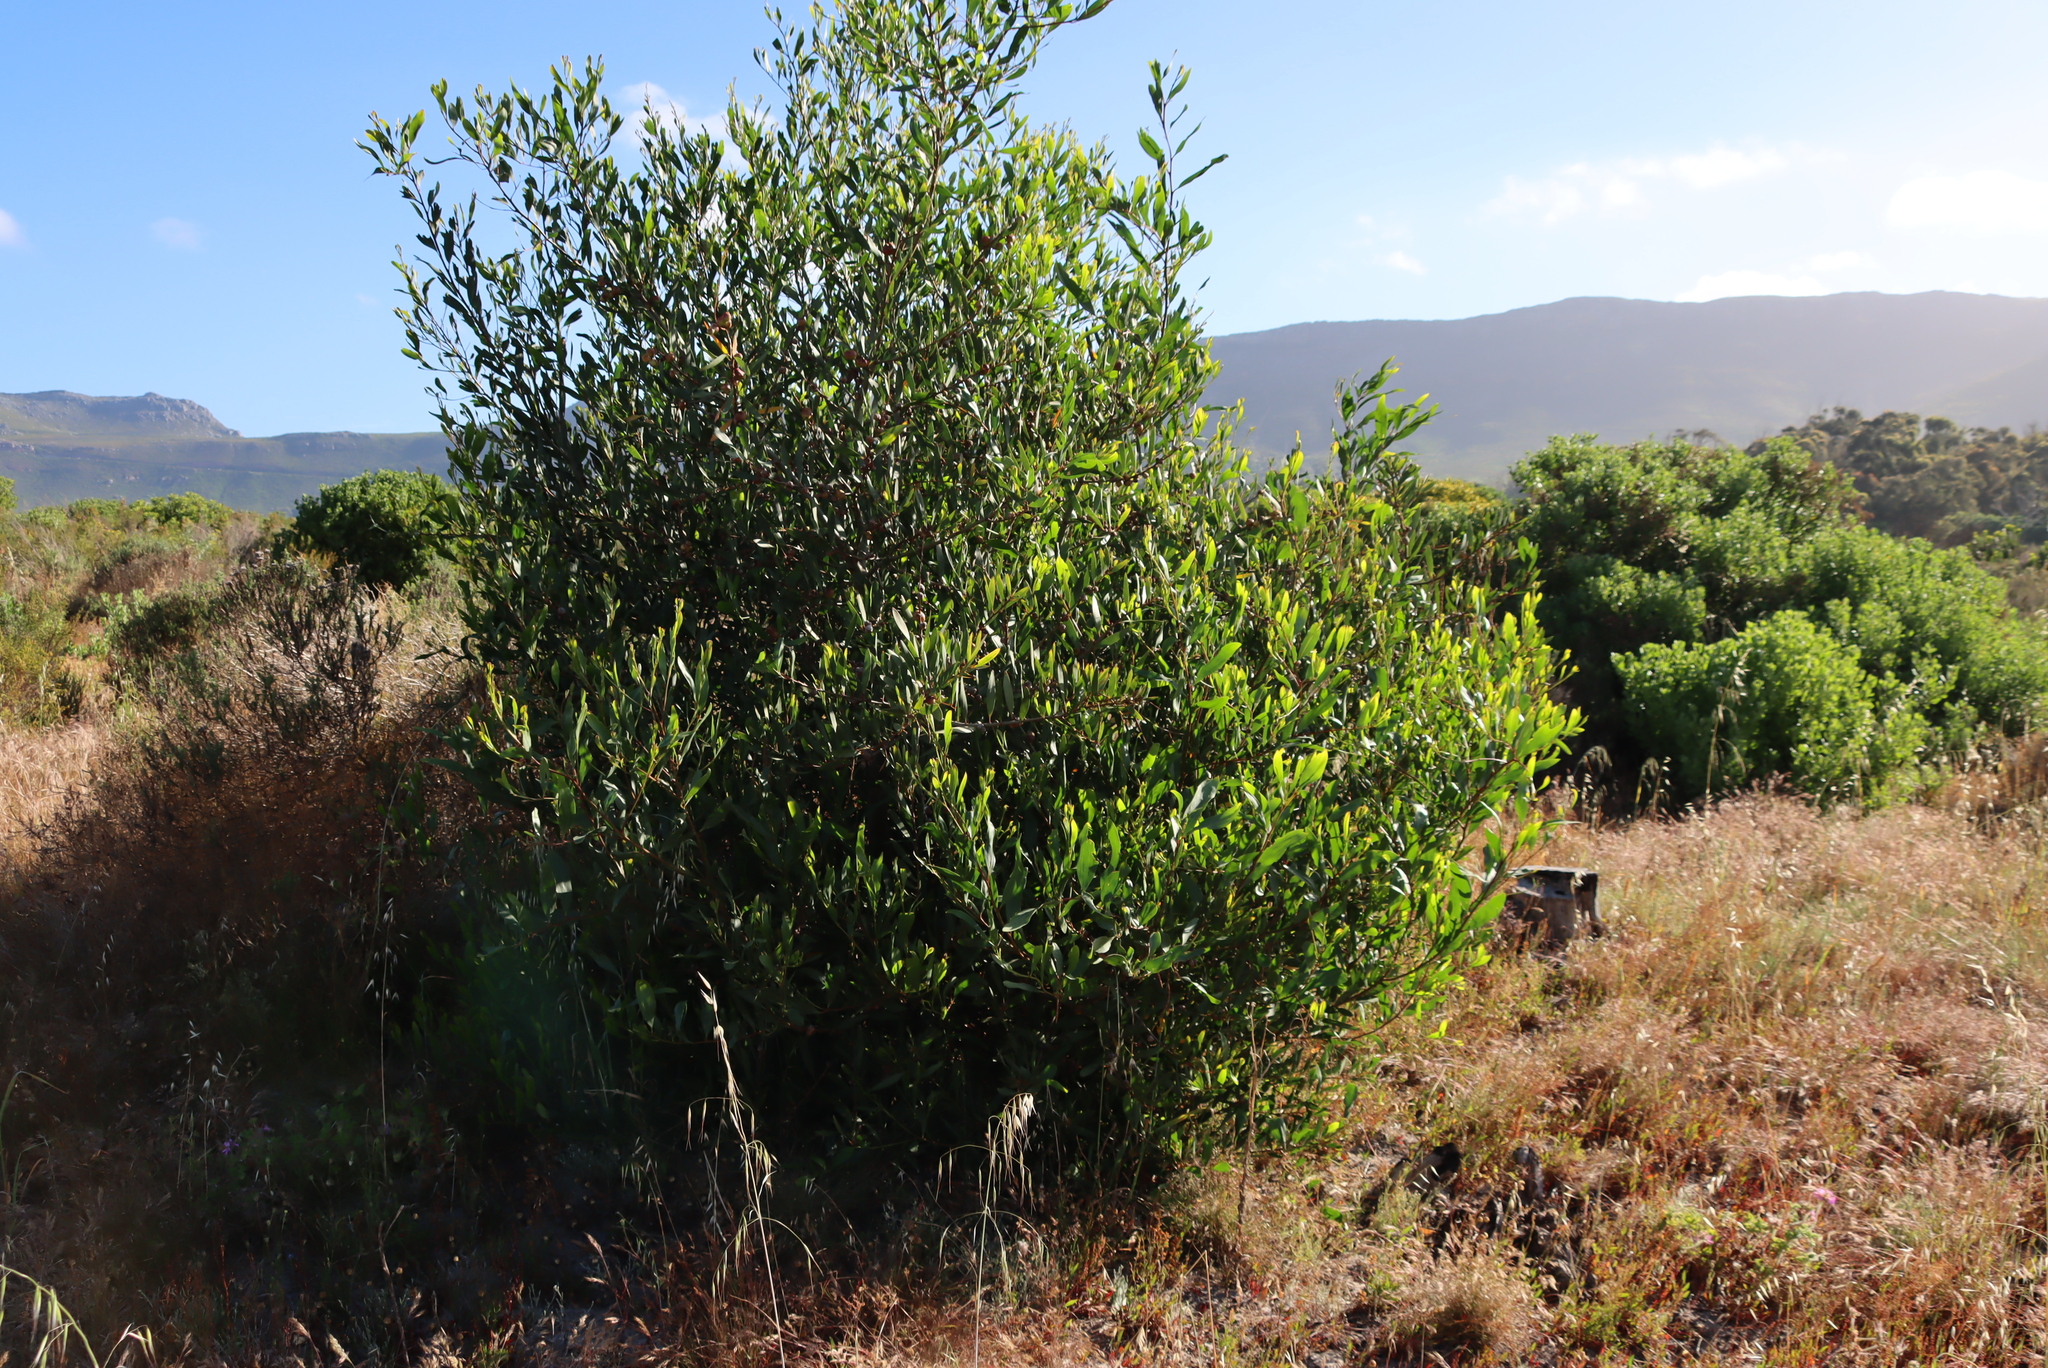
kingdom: Plantae
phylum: Tracheophyta
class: Magnoliopsida
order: Fabales
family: Fabaceae
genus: Acacia
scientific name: Acacia longifolia
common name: Sydney golden wattle
